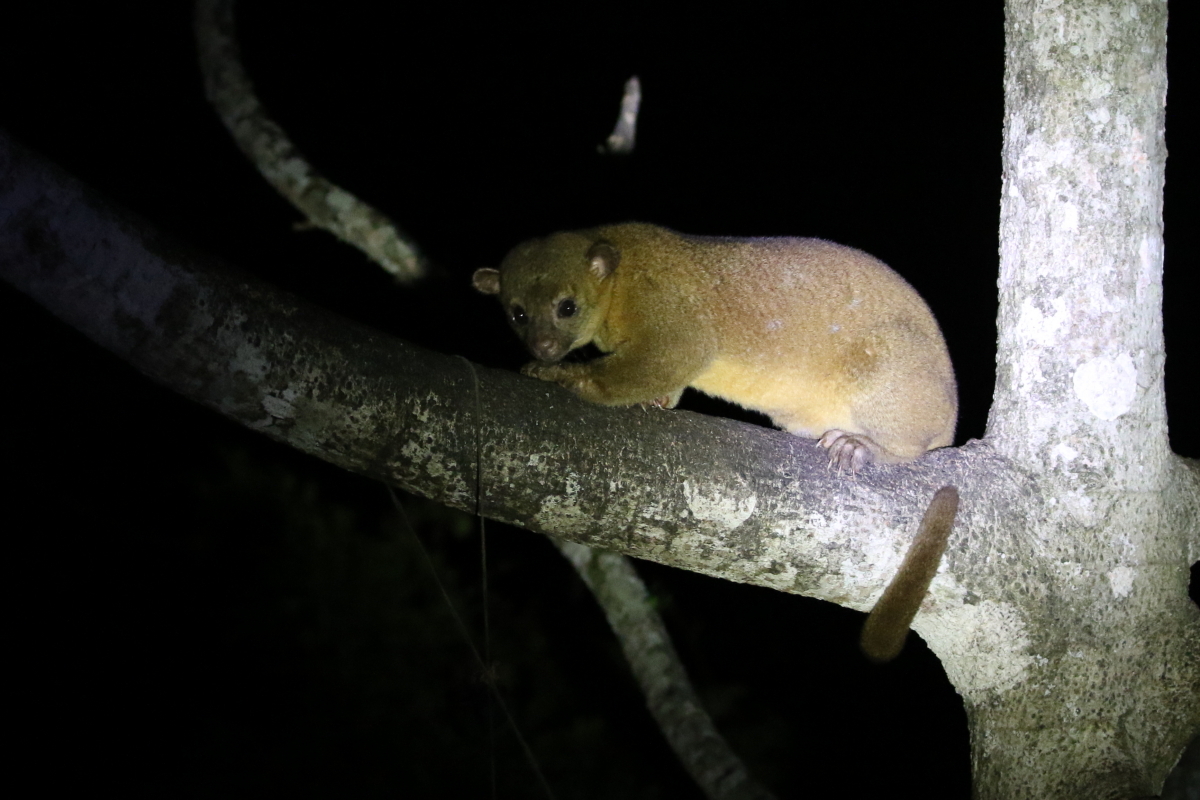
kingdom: Animalia
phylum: Chordata
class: Mammalia
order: Carnivora
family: Procyonidae
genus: Potos
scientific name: Potos flavus
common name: Kinkajou
